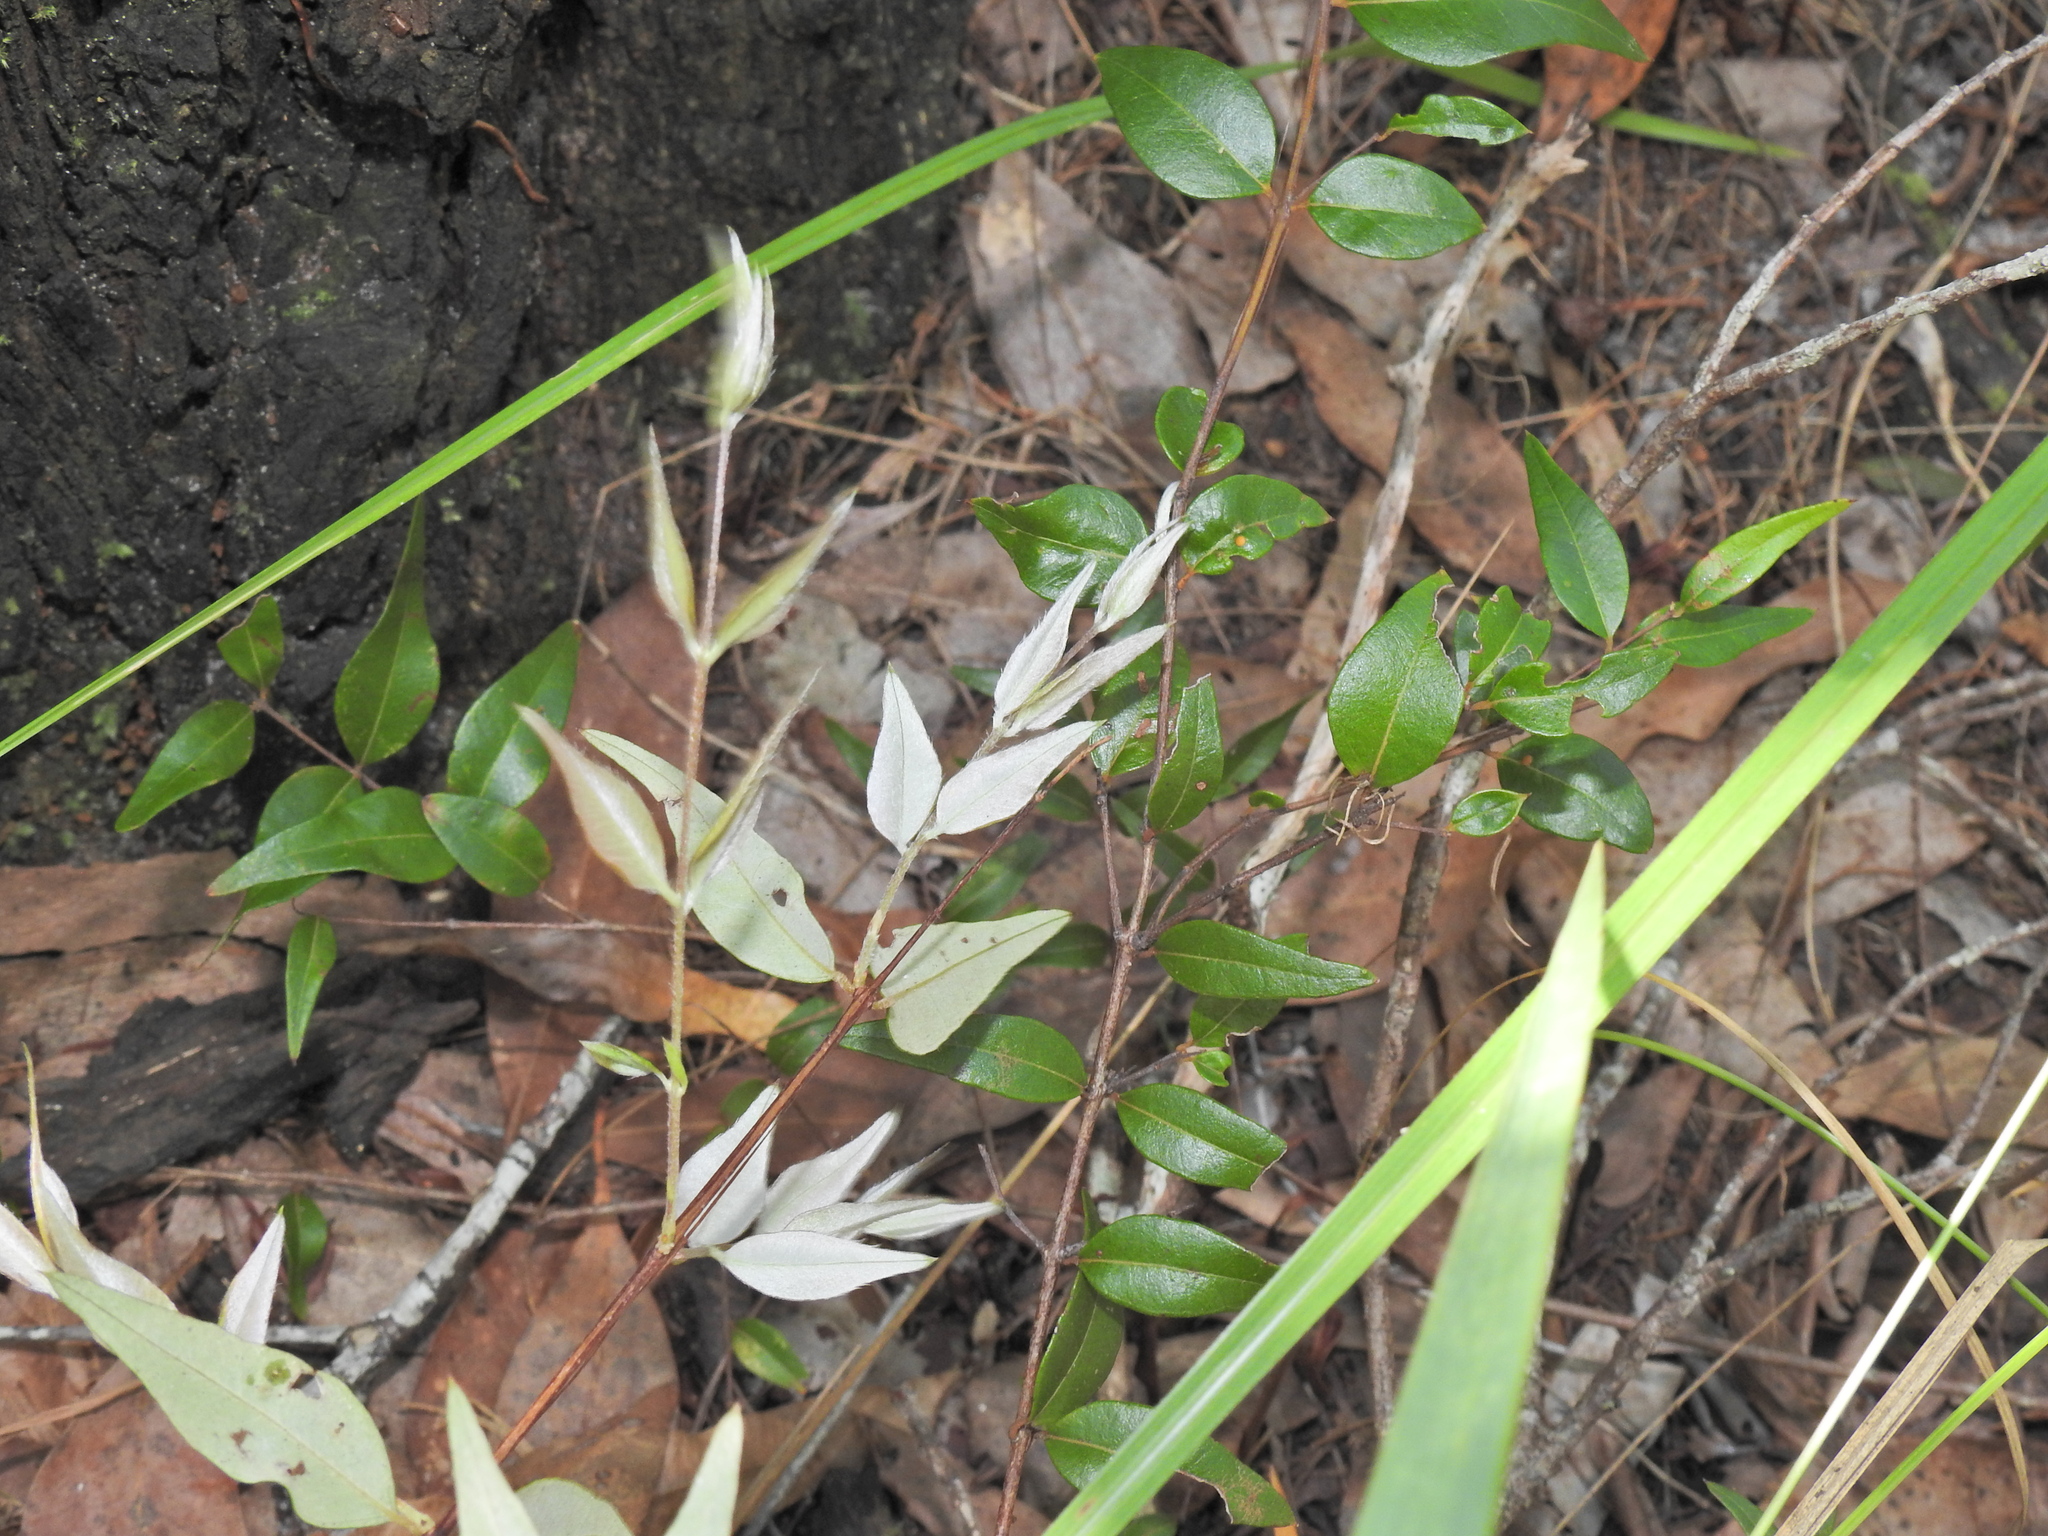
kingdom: Plantae
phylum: Tracheophyta
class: Magnoliopsida
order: Myrtales
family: Myrtaceae
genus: Austromyrtus
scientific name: Austromyrtus dulcis
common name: Migden-berry
